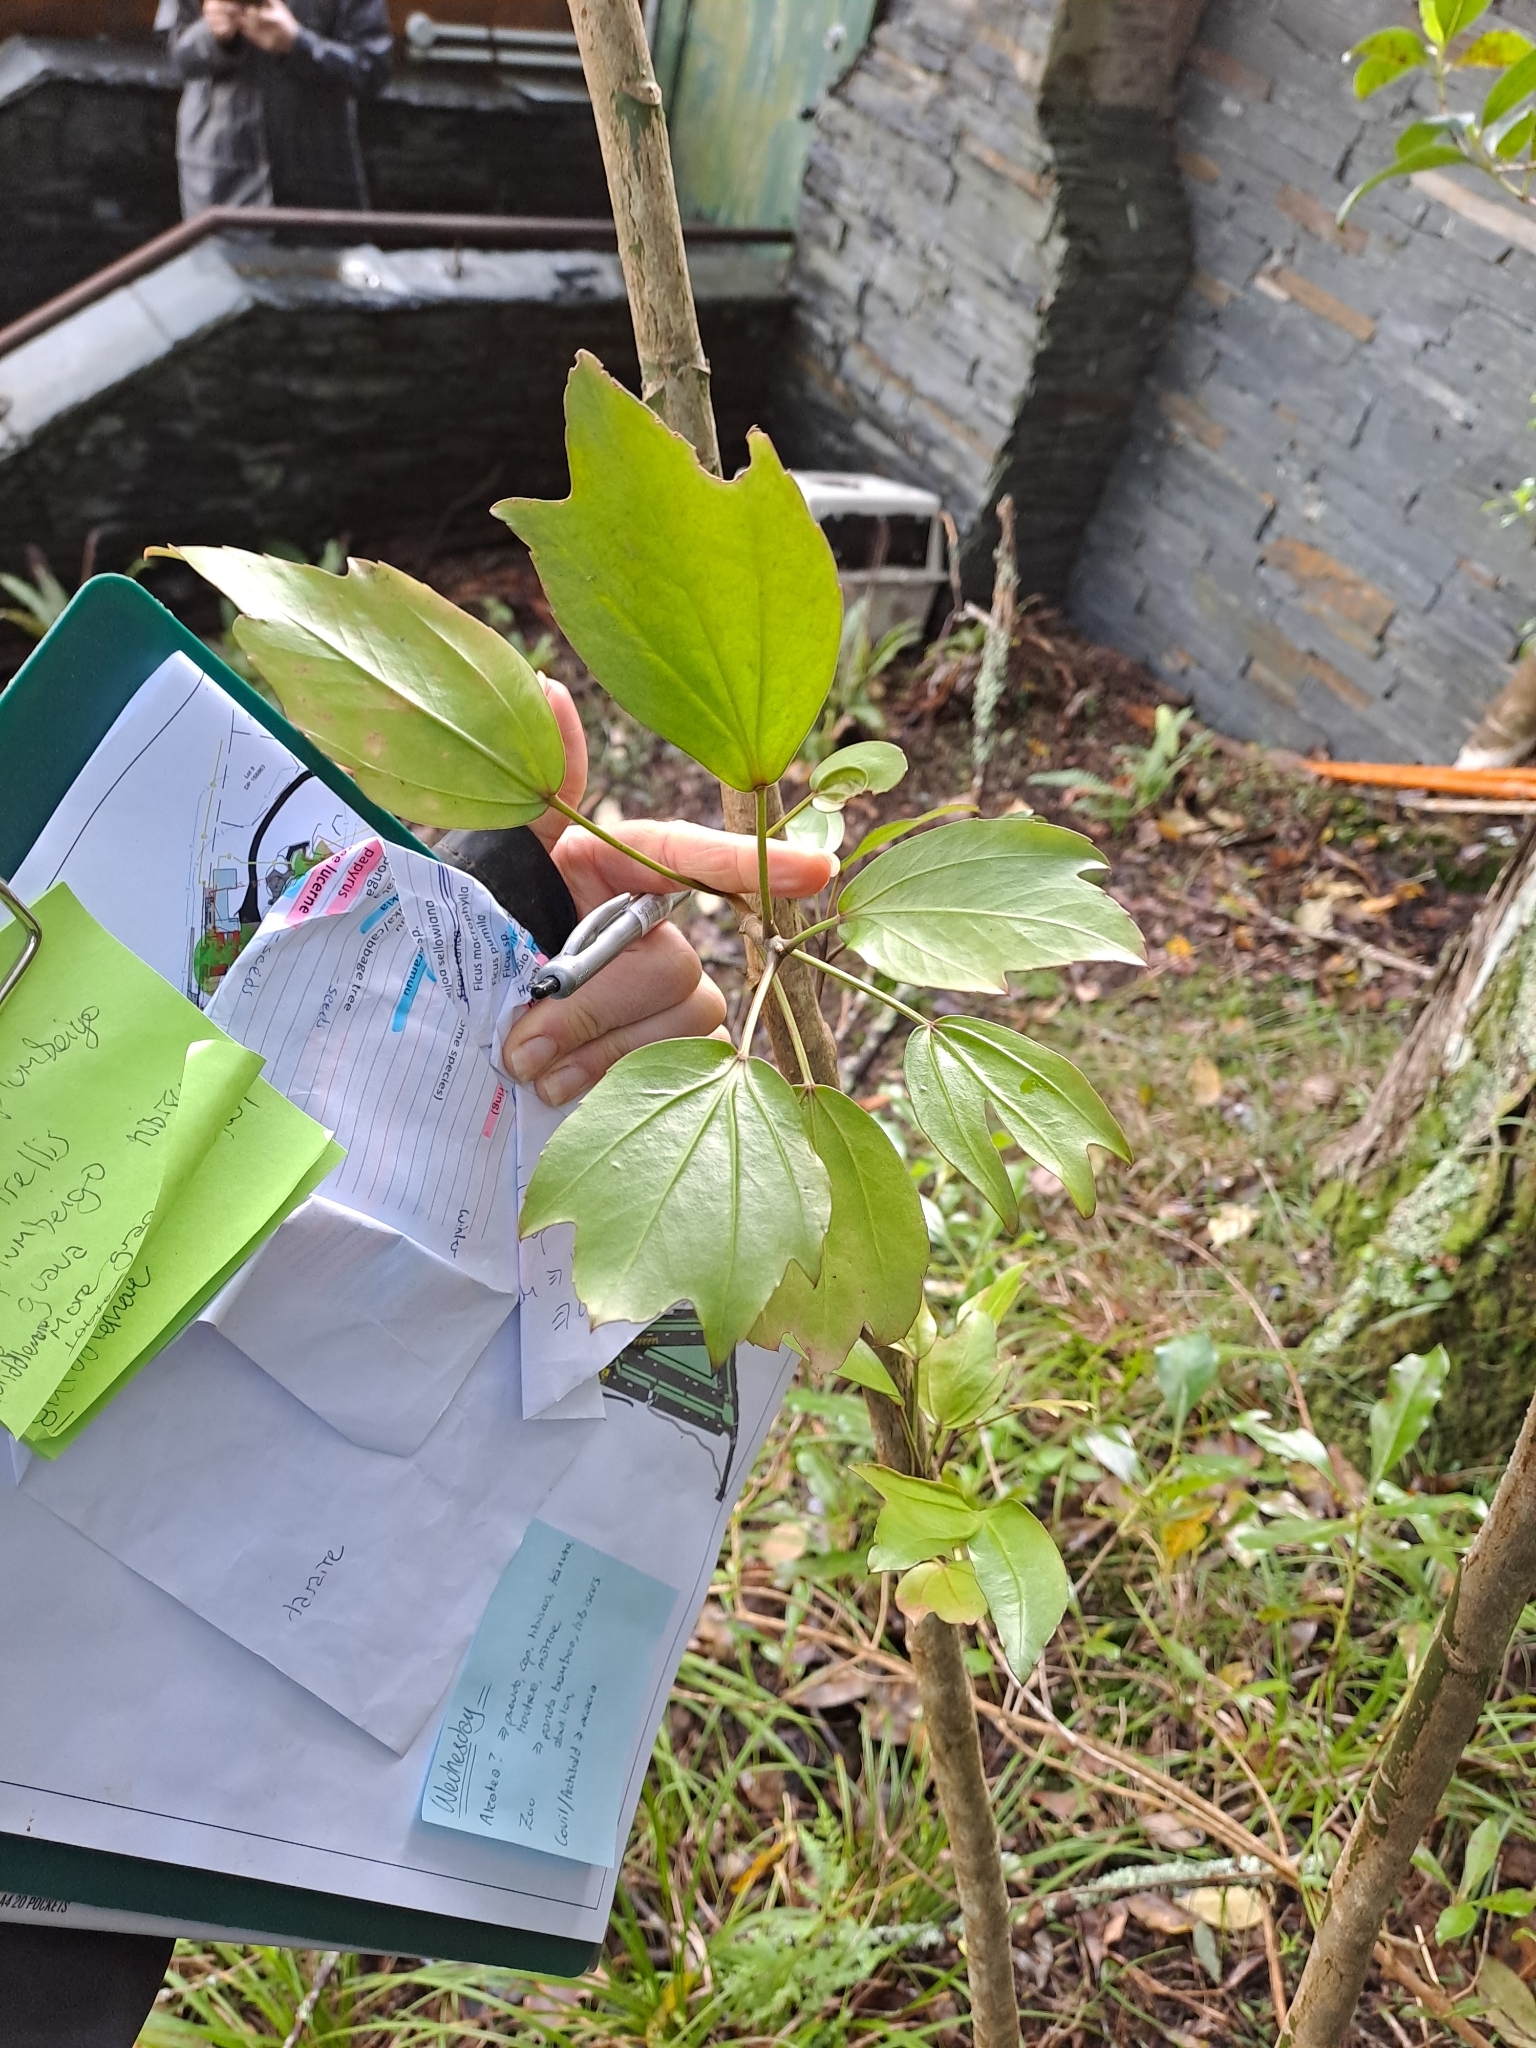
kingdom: Plantae
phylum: Tracheophyta
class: Magnoliopsida
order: Apiales
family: Araliaceae
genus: Pseudopanax
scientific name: Pseudopanax
